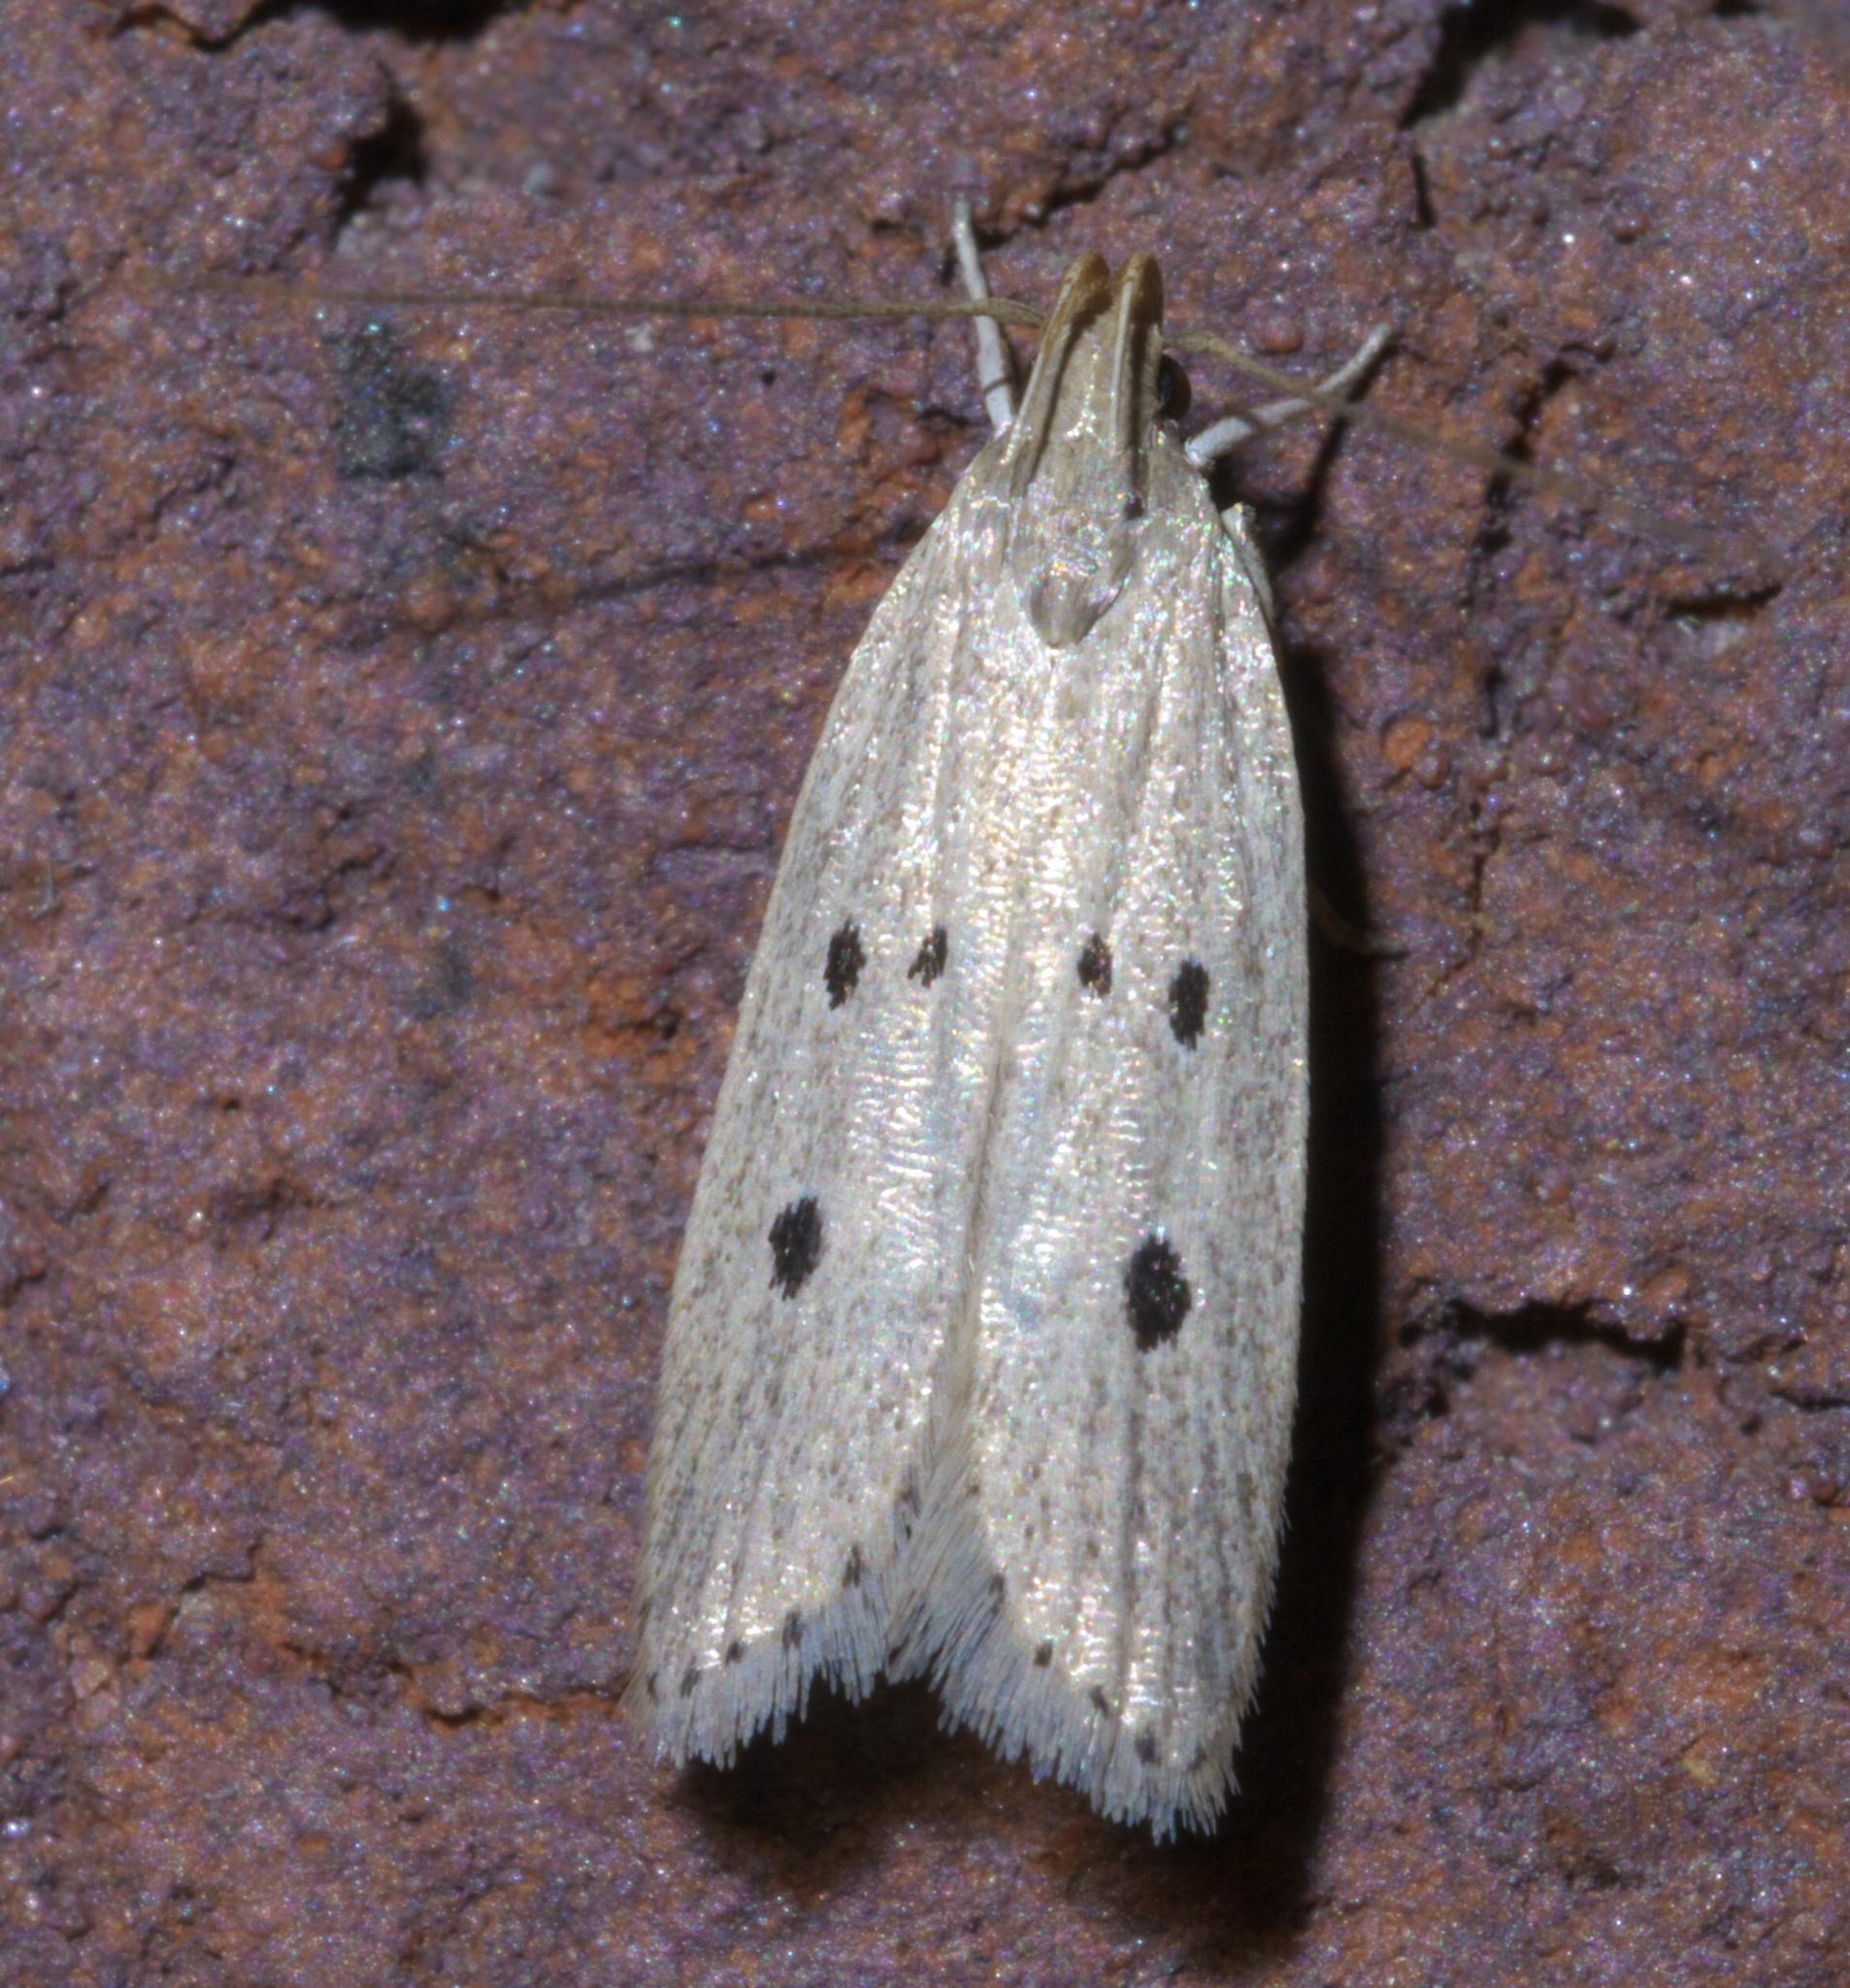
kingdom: Animalia
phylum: Arthropoda
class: Insecta
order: Lepidoptera
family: Gelechiidae
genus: Helcystogramma
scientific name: Helcystogramma melanocarpa
